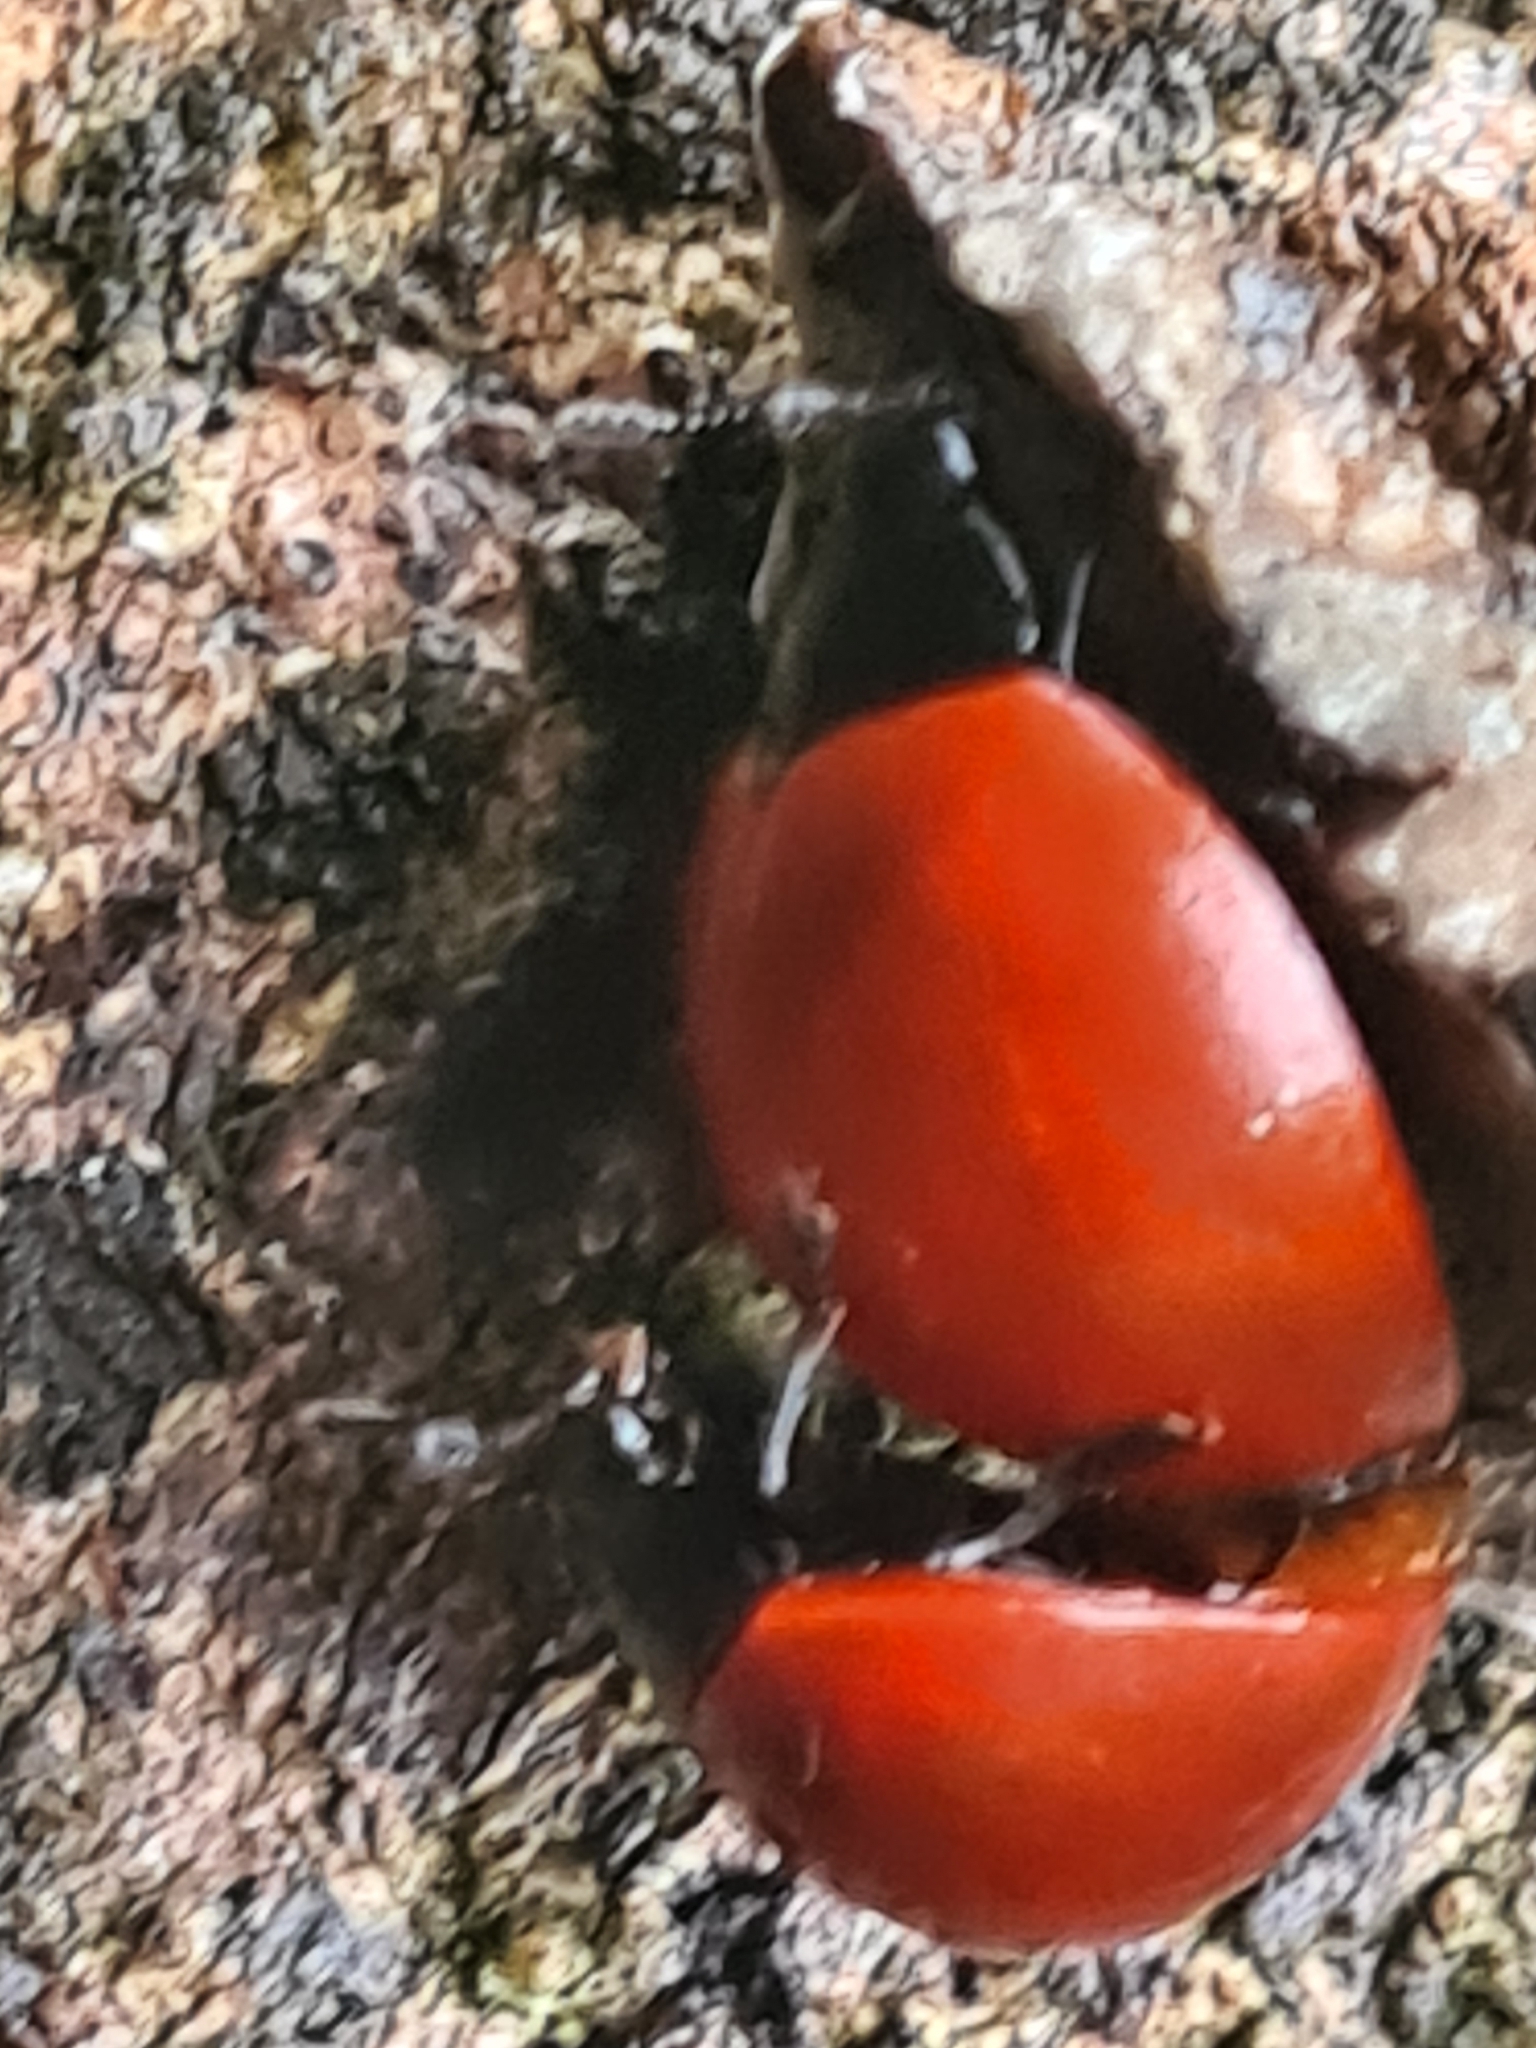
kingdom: Animalia
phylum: Arthropoda
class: Insecta
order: Coleoptera
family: Erotylidae
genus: Aegithus
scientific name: Aegithus
